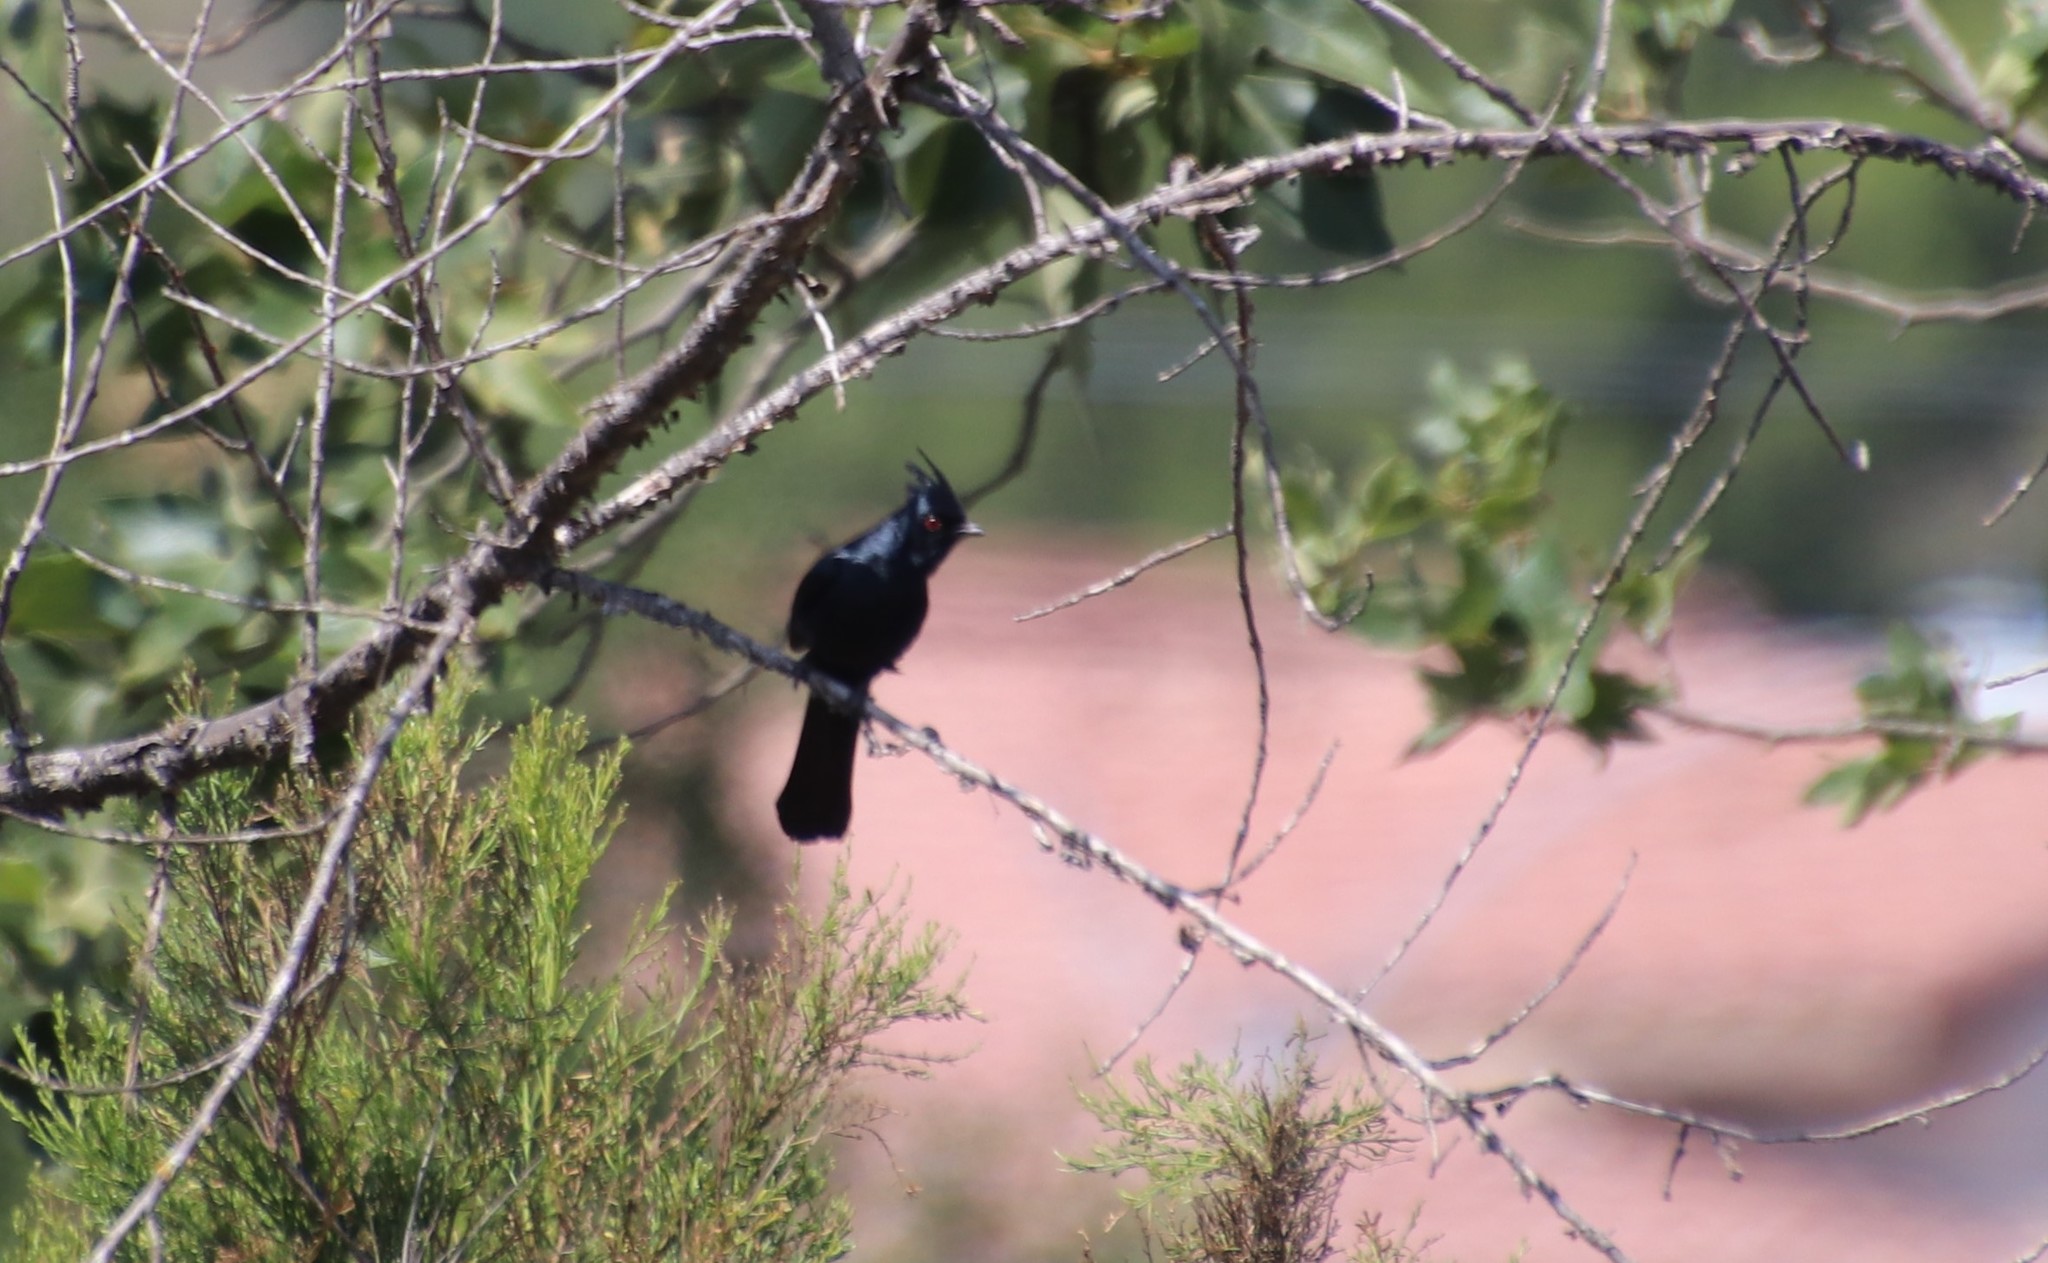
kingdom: Animalia
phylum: Chordata
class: Aves
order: Passeriformes
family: Ptilogonatidae
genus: Phainopepla
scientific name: Phainopepla nitens
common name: Phainopepla
